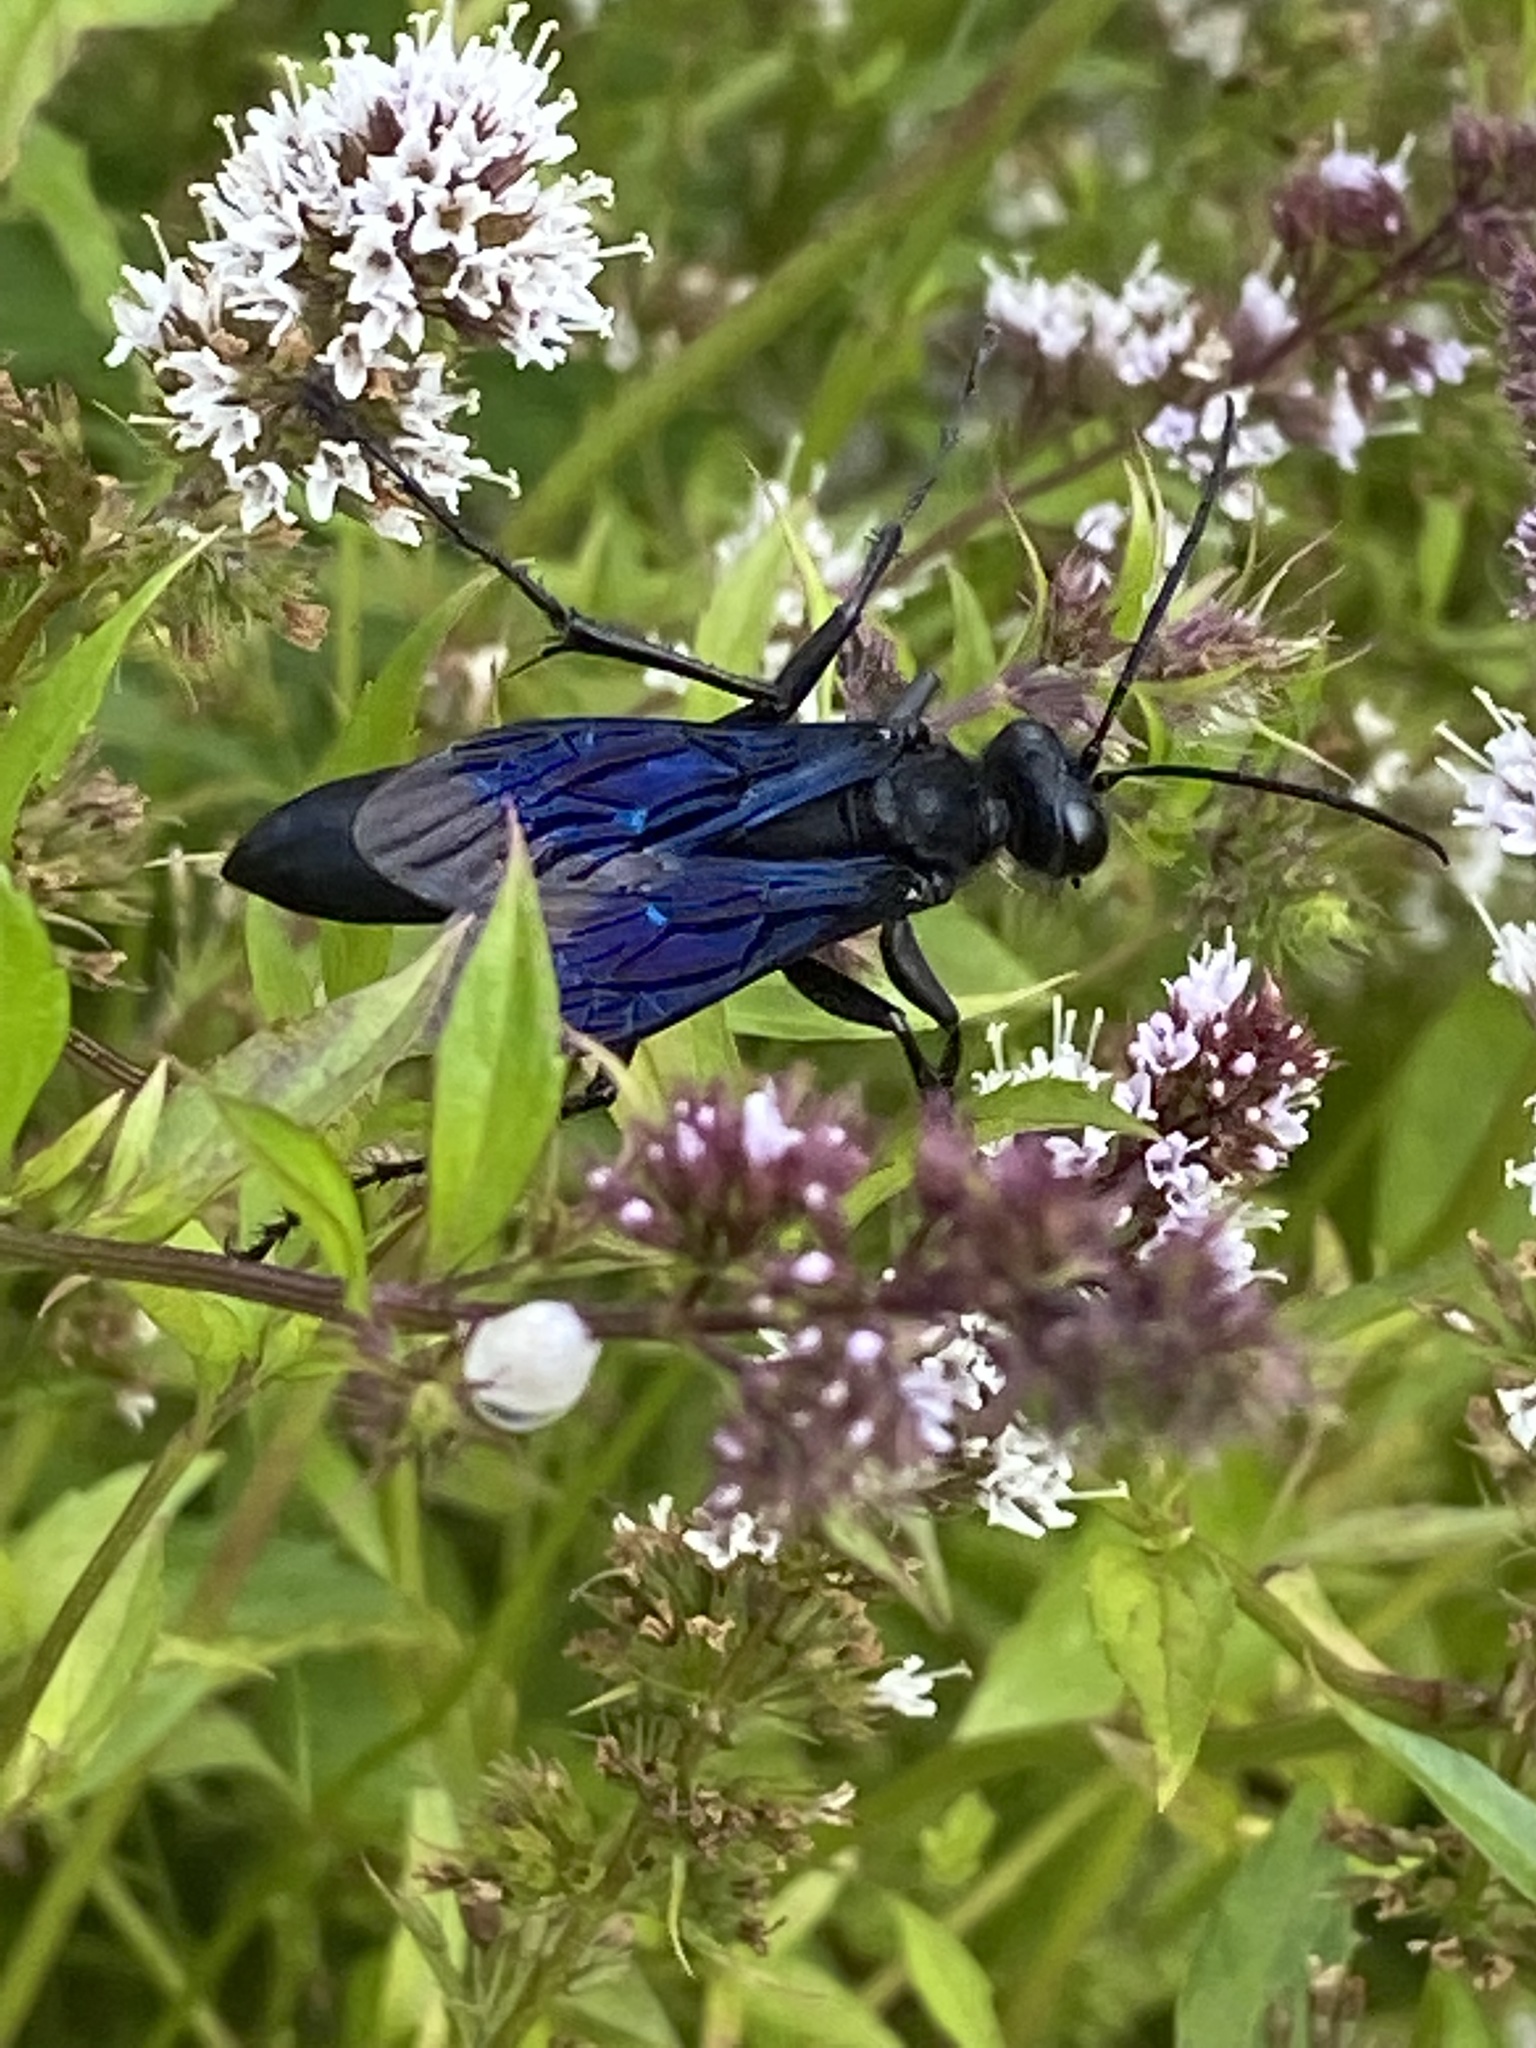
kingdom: Animalia
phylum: Arthropoda
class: Insecta
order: Hymenoptera
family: Sphecidae
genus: Sphex
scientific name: Sphex pensylvanicus
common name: Great black digger wasp
